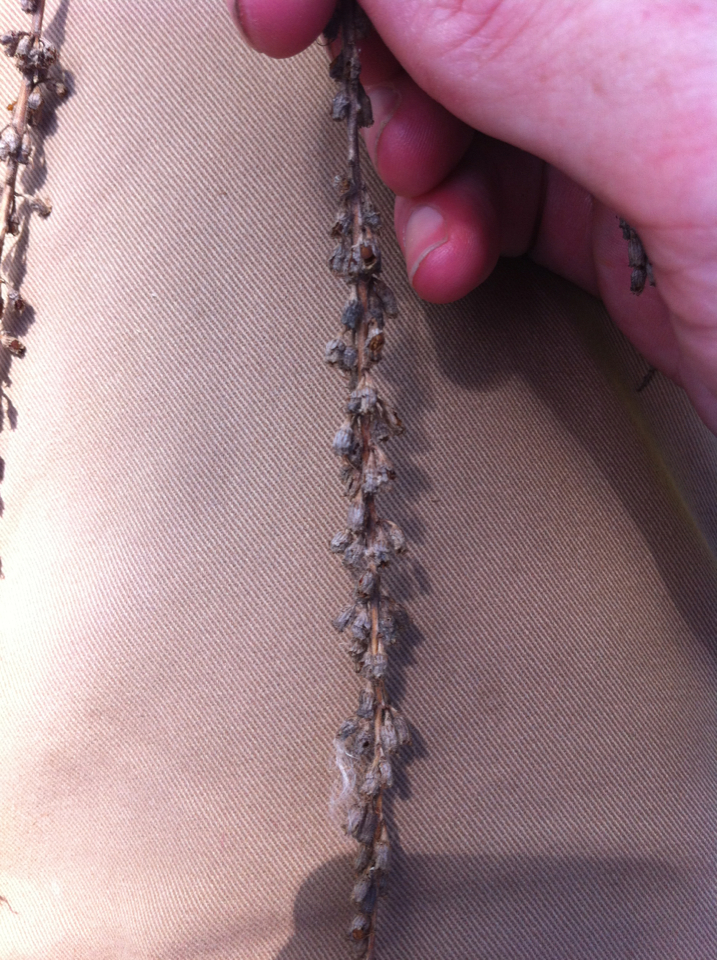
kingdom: Plantae
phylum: Tracheophyta
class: Magnoliopsida
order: Myrtales
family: Lythraceae
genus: Lythrum
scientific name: Lythrum salicaria
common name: Purple loosestrife
